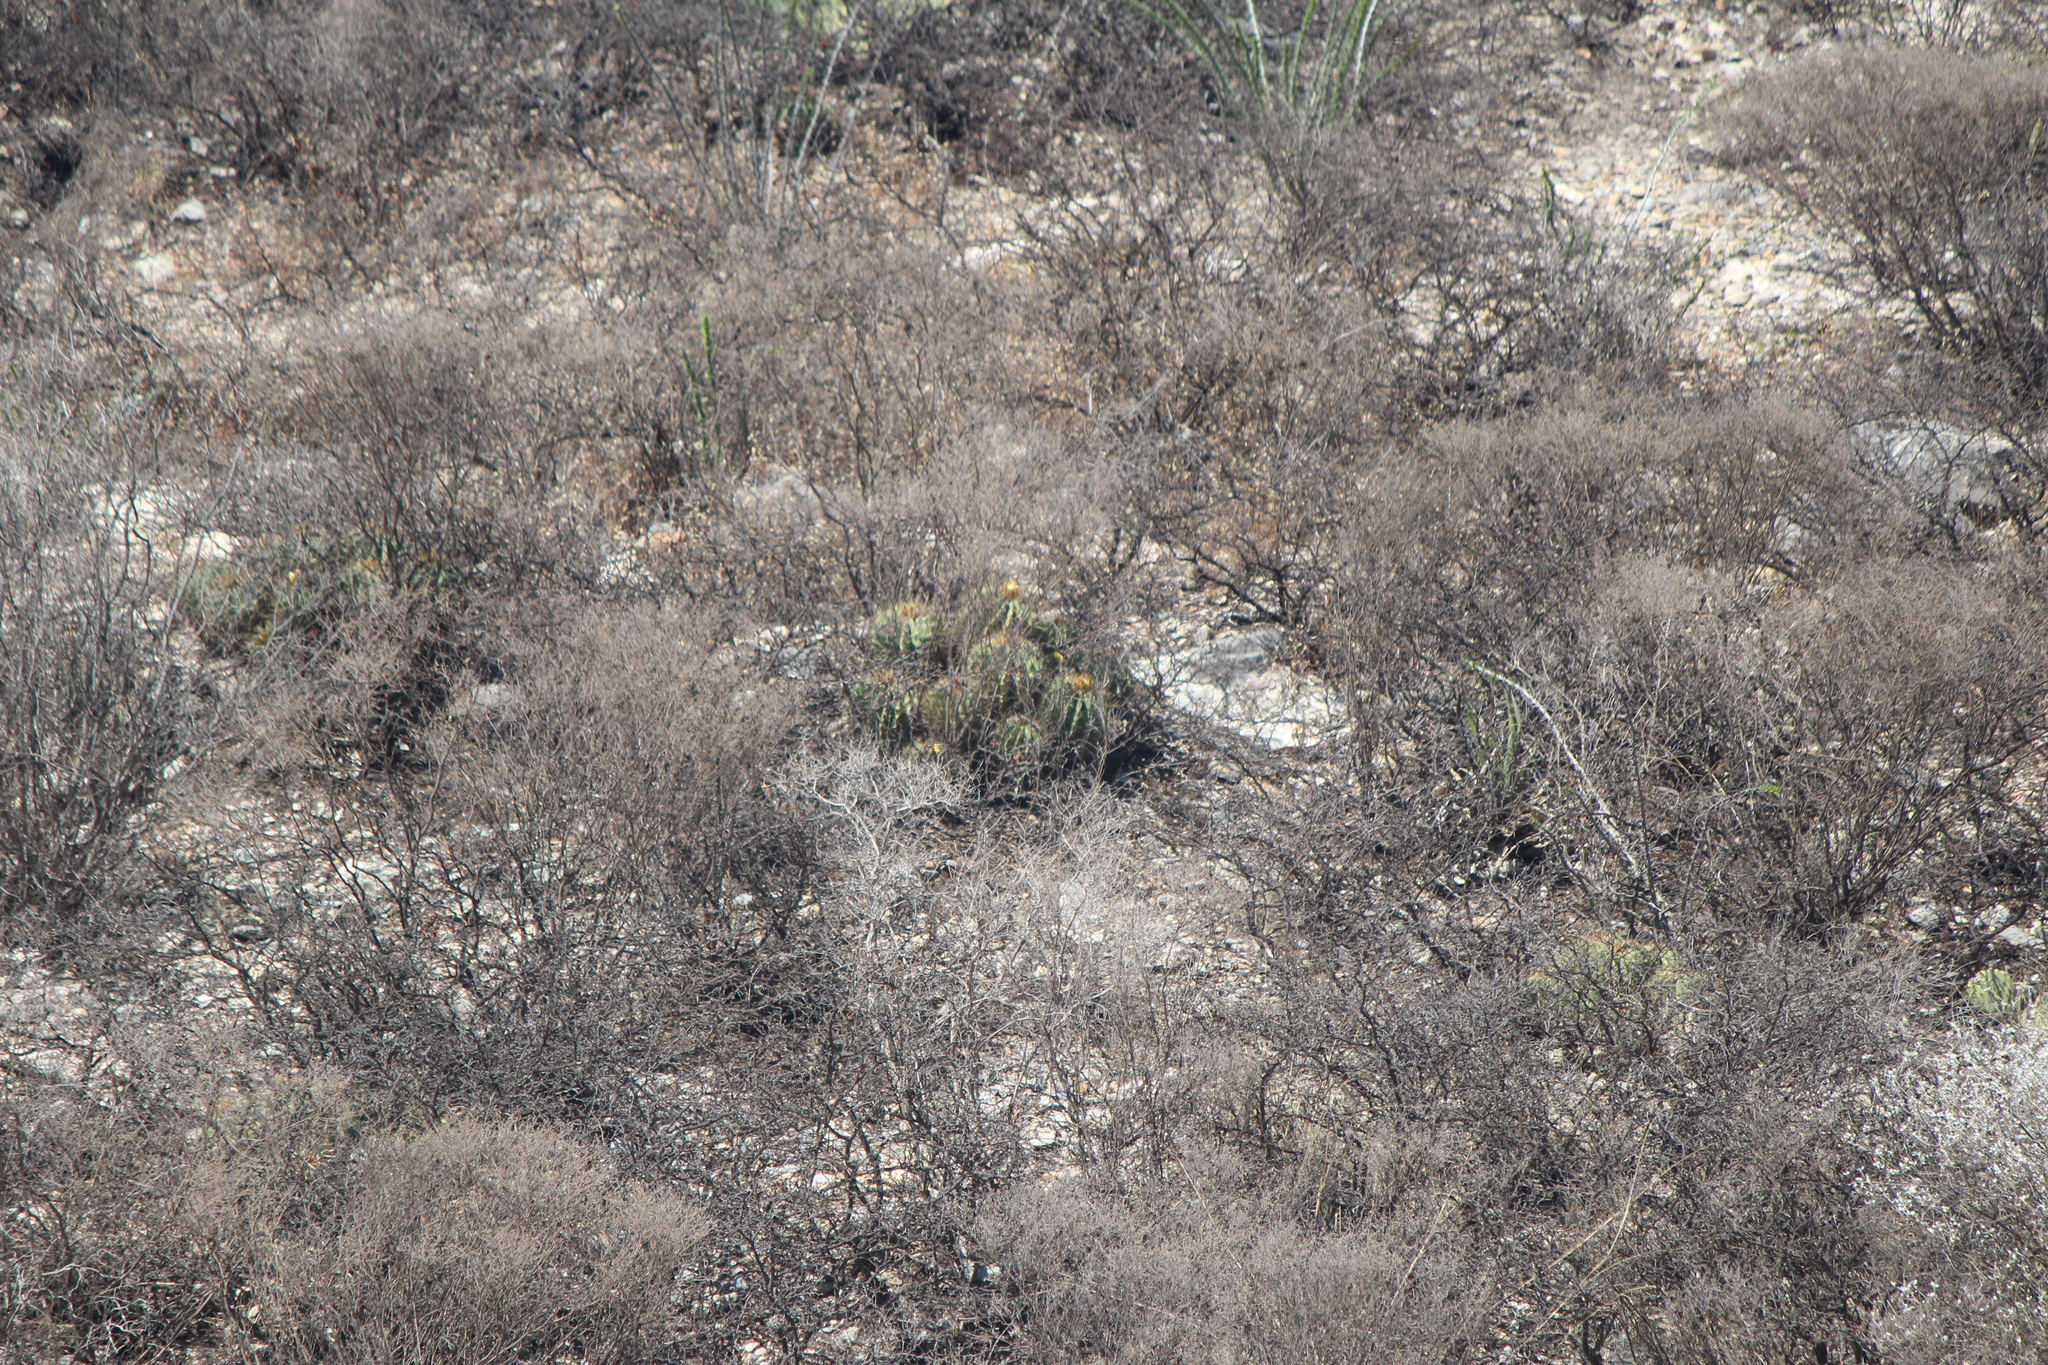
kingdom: Plantae
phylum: Tracheophyta
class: Magnoliopsida
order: Caryophyllales
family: Cactaceae
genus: Parrycactus
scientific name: Parrycactus echidne
